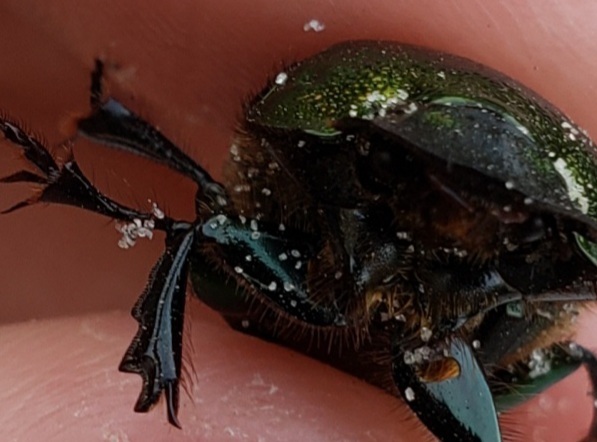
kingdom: Animalia
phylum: Arthropoda
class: Insecta
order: Coleoptera
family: Scarabaeidae
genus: Phanaeus
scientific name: Phanaeus igneus
